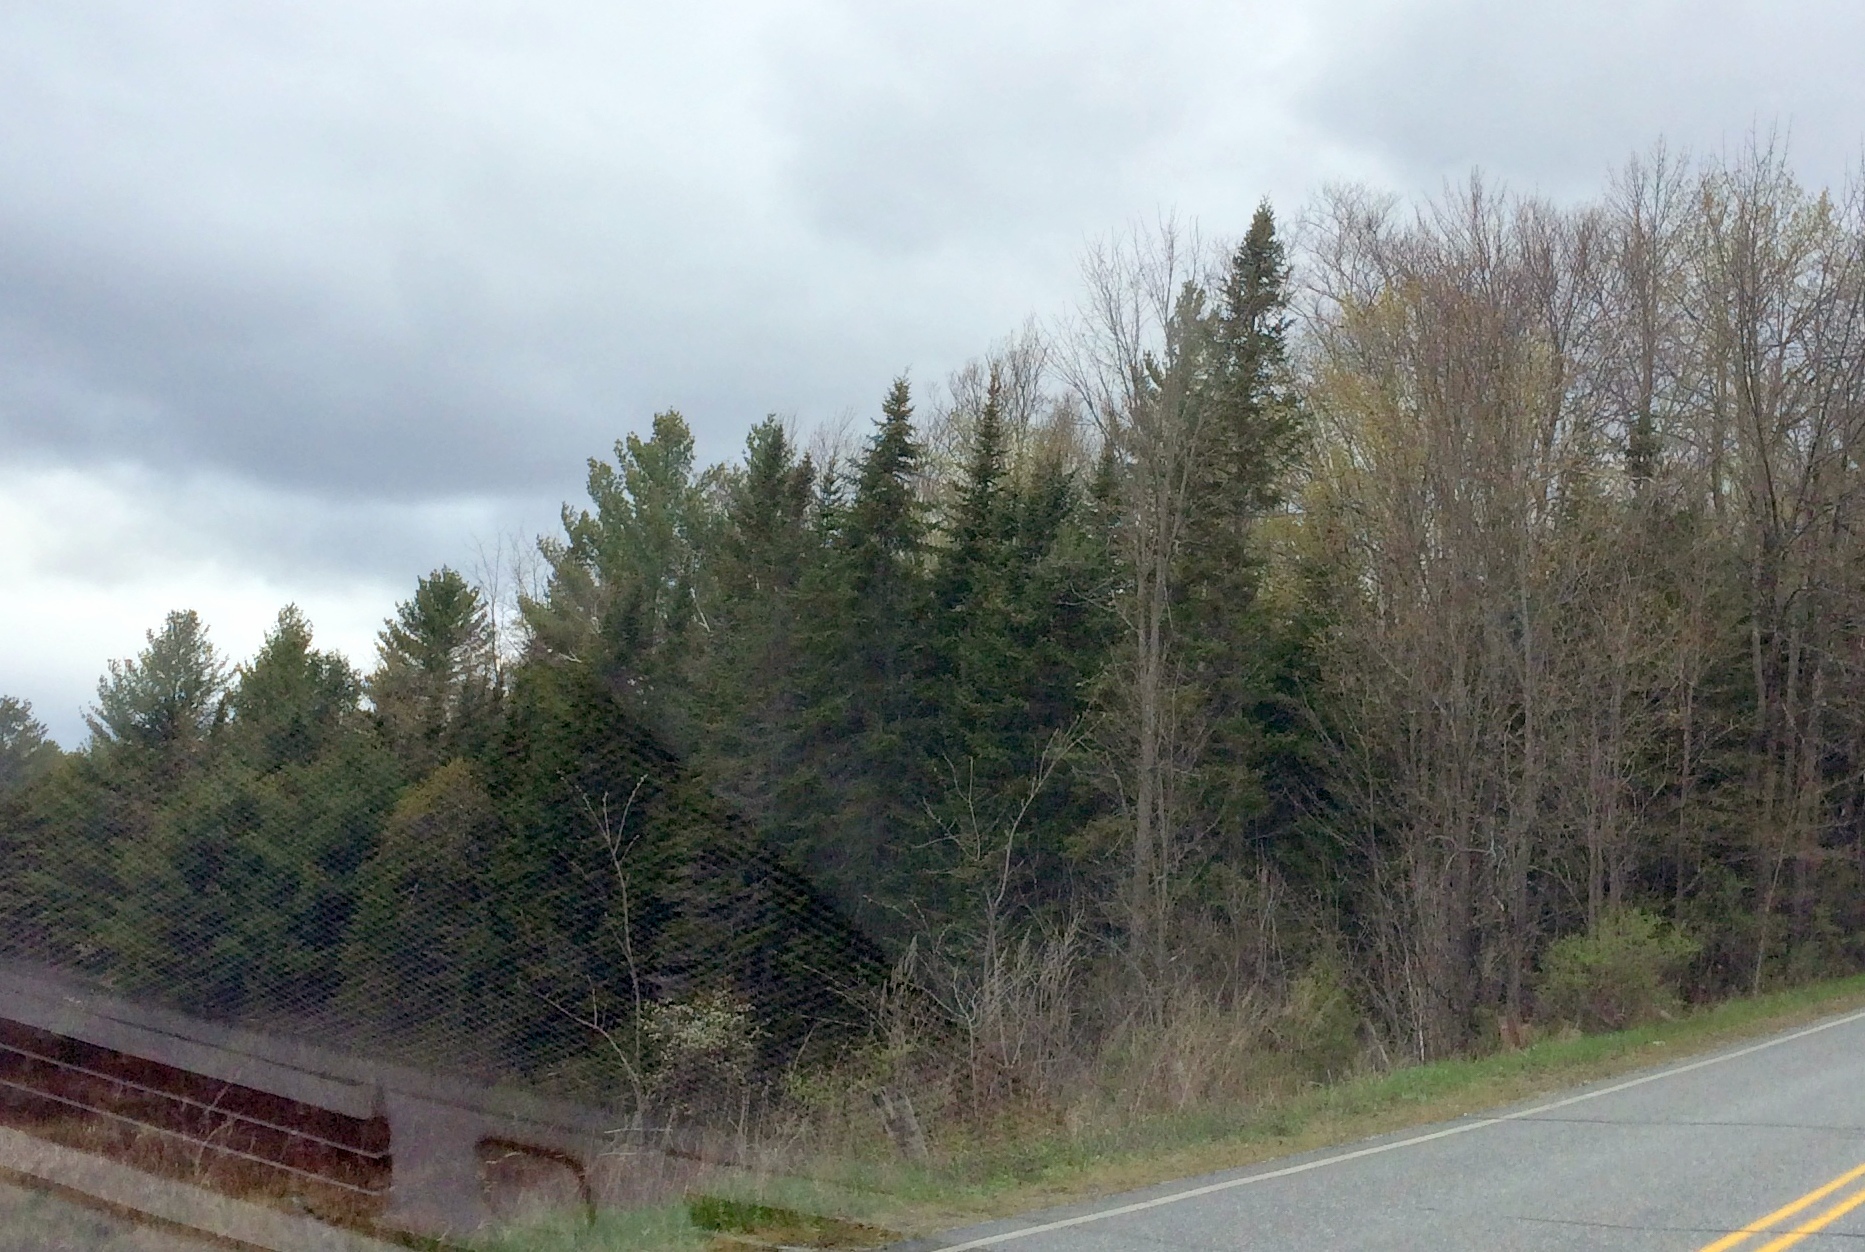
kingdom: Plantae
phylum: Tracheophyta
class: Pinopsida
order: Pinales
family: Pinaceae
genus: Abies
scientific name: Abies balsamea
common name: Balsam fir
